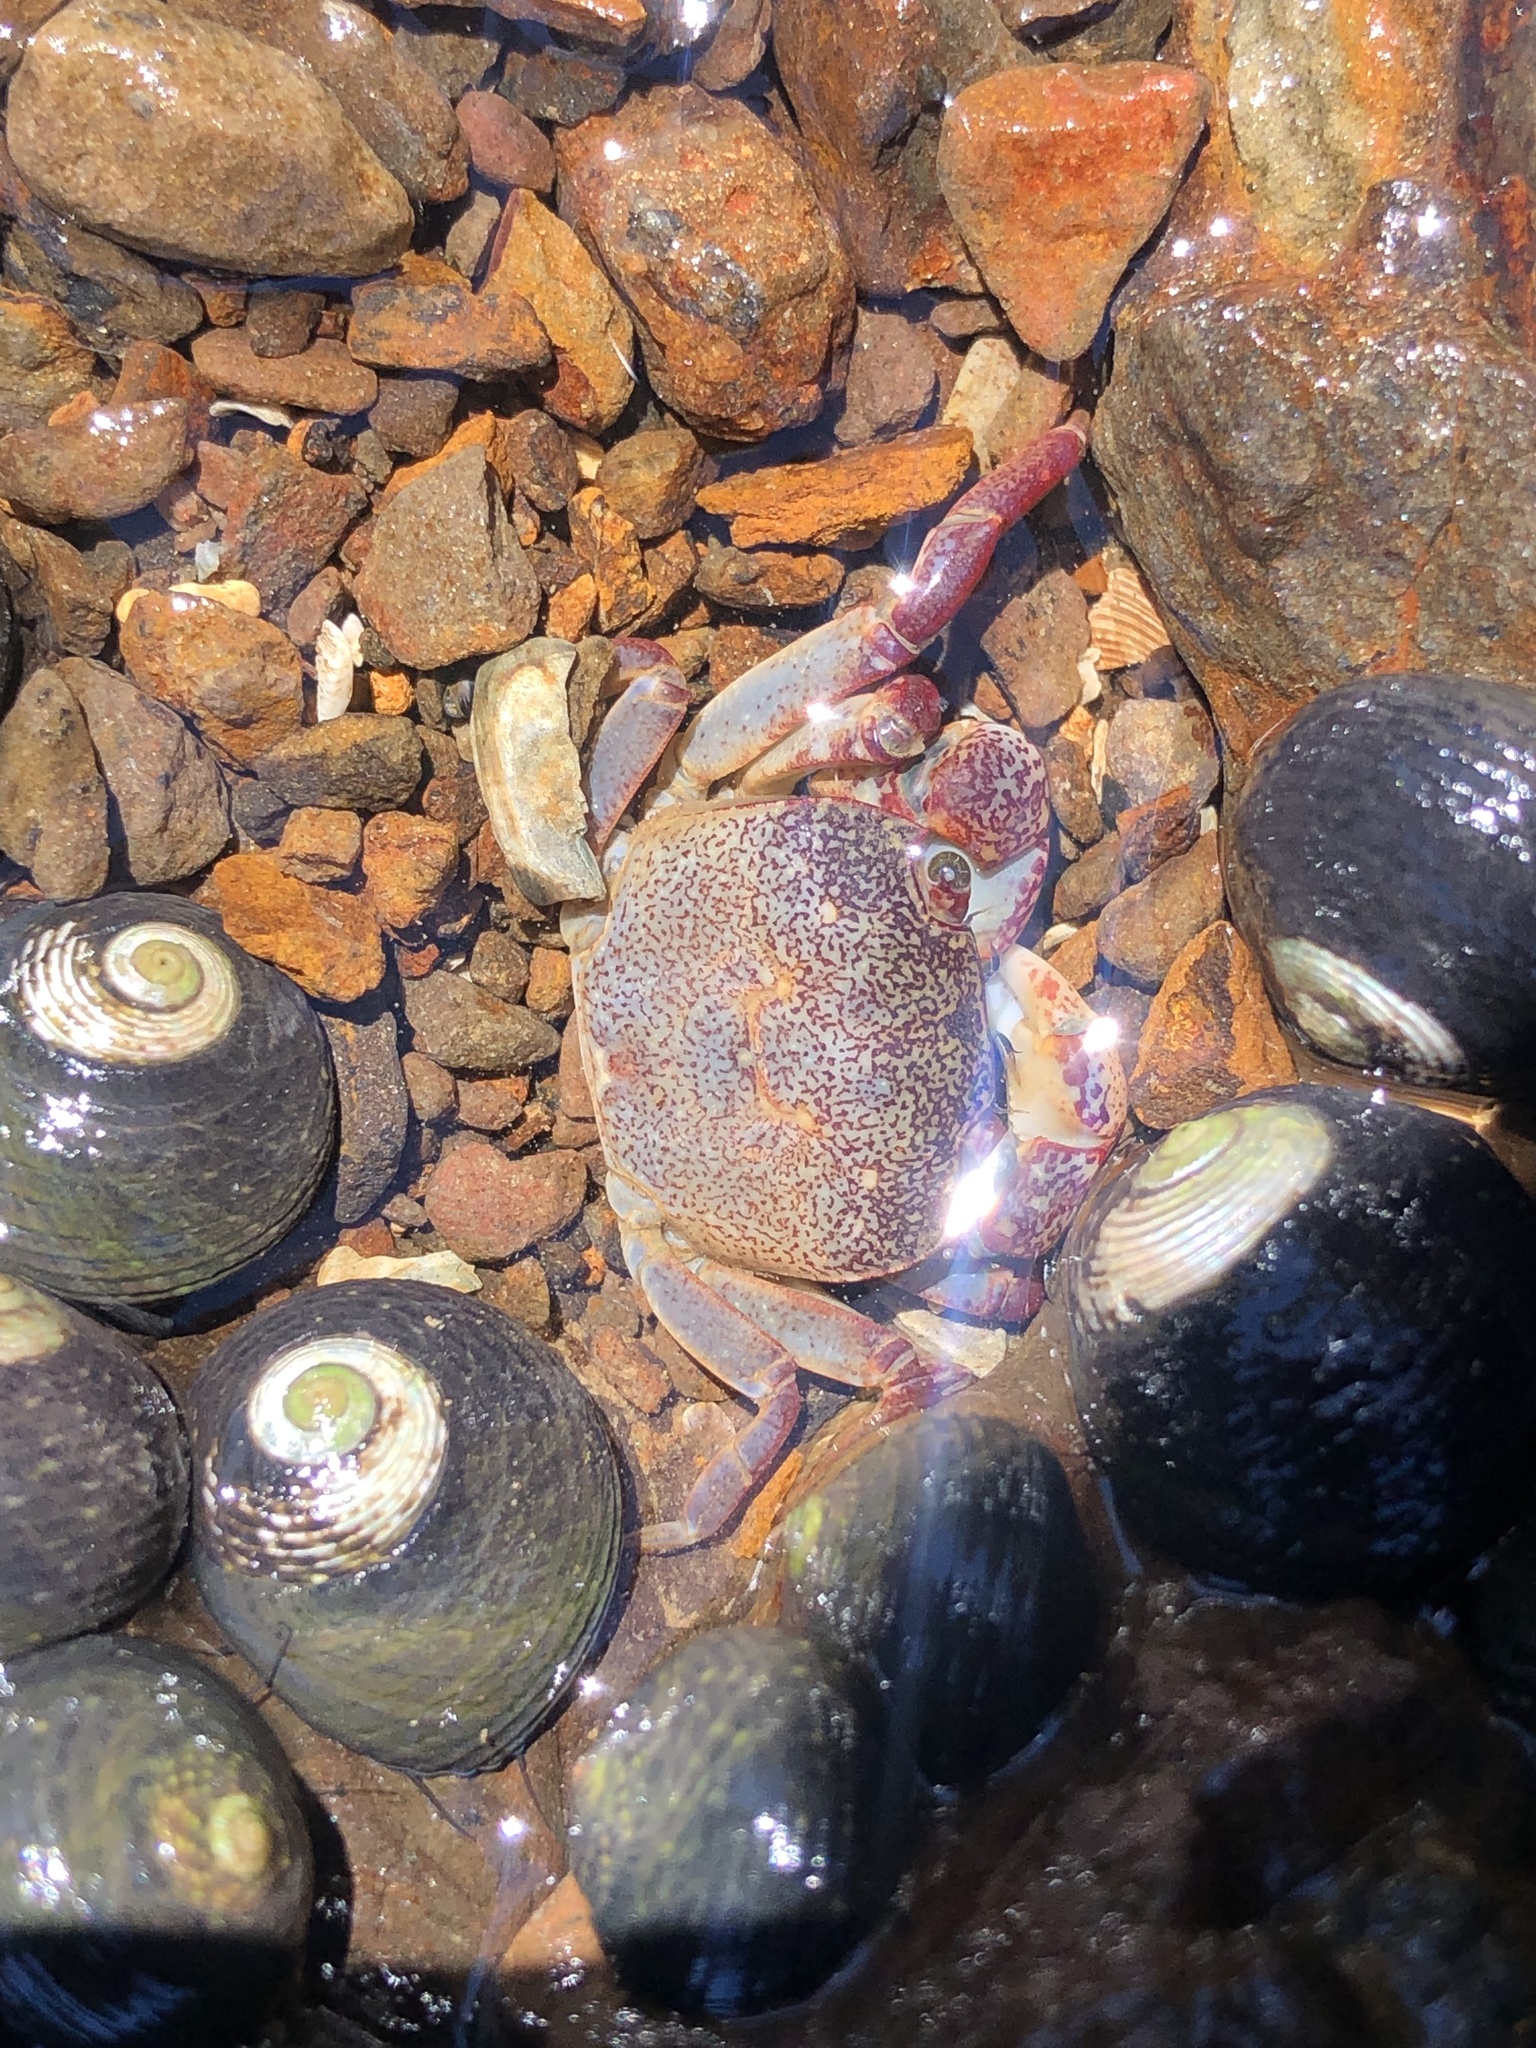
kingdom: Animalia
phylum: Arthropoda
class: Malacostraca
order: Decapoda
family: Varunidae
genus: Cyclograpsus
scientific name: Cyclograpsus lavauxi
